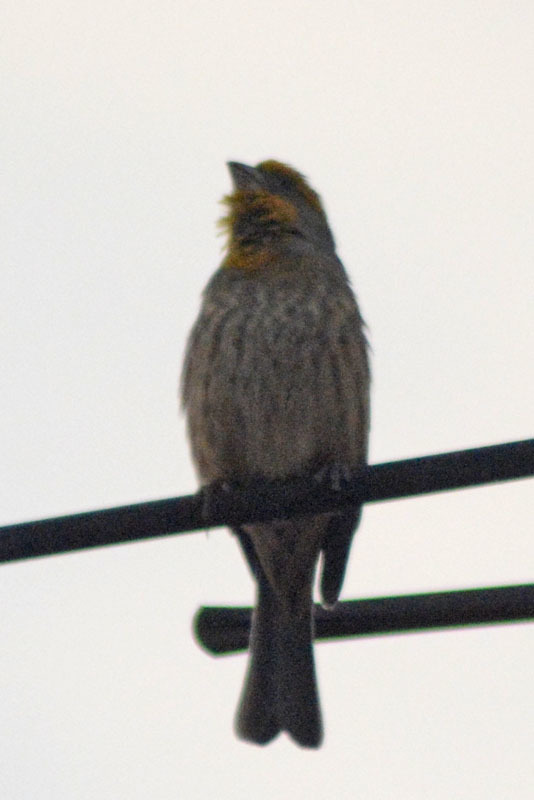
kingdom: Animalia
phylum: Chordata
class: Aves
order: Passeriformes
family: Fringillidae
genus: Haemorhous
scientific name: Haemorhous mexicanus
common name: House finch
